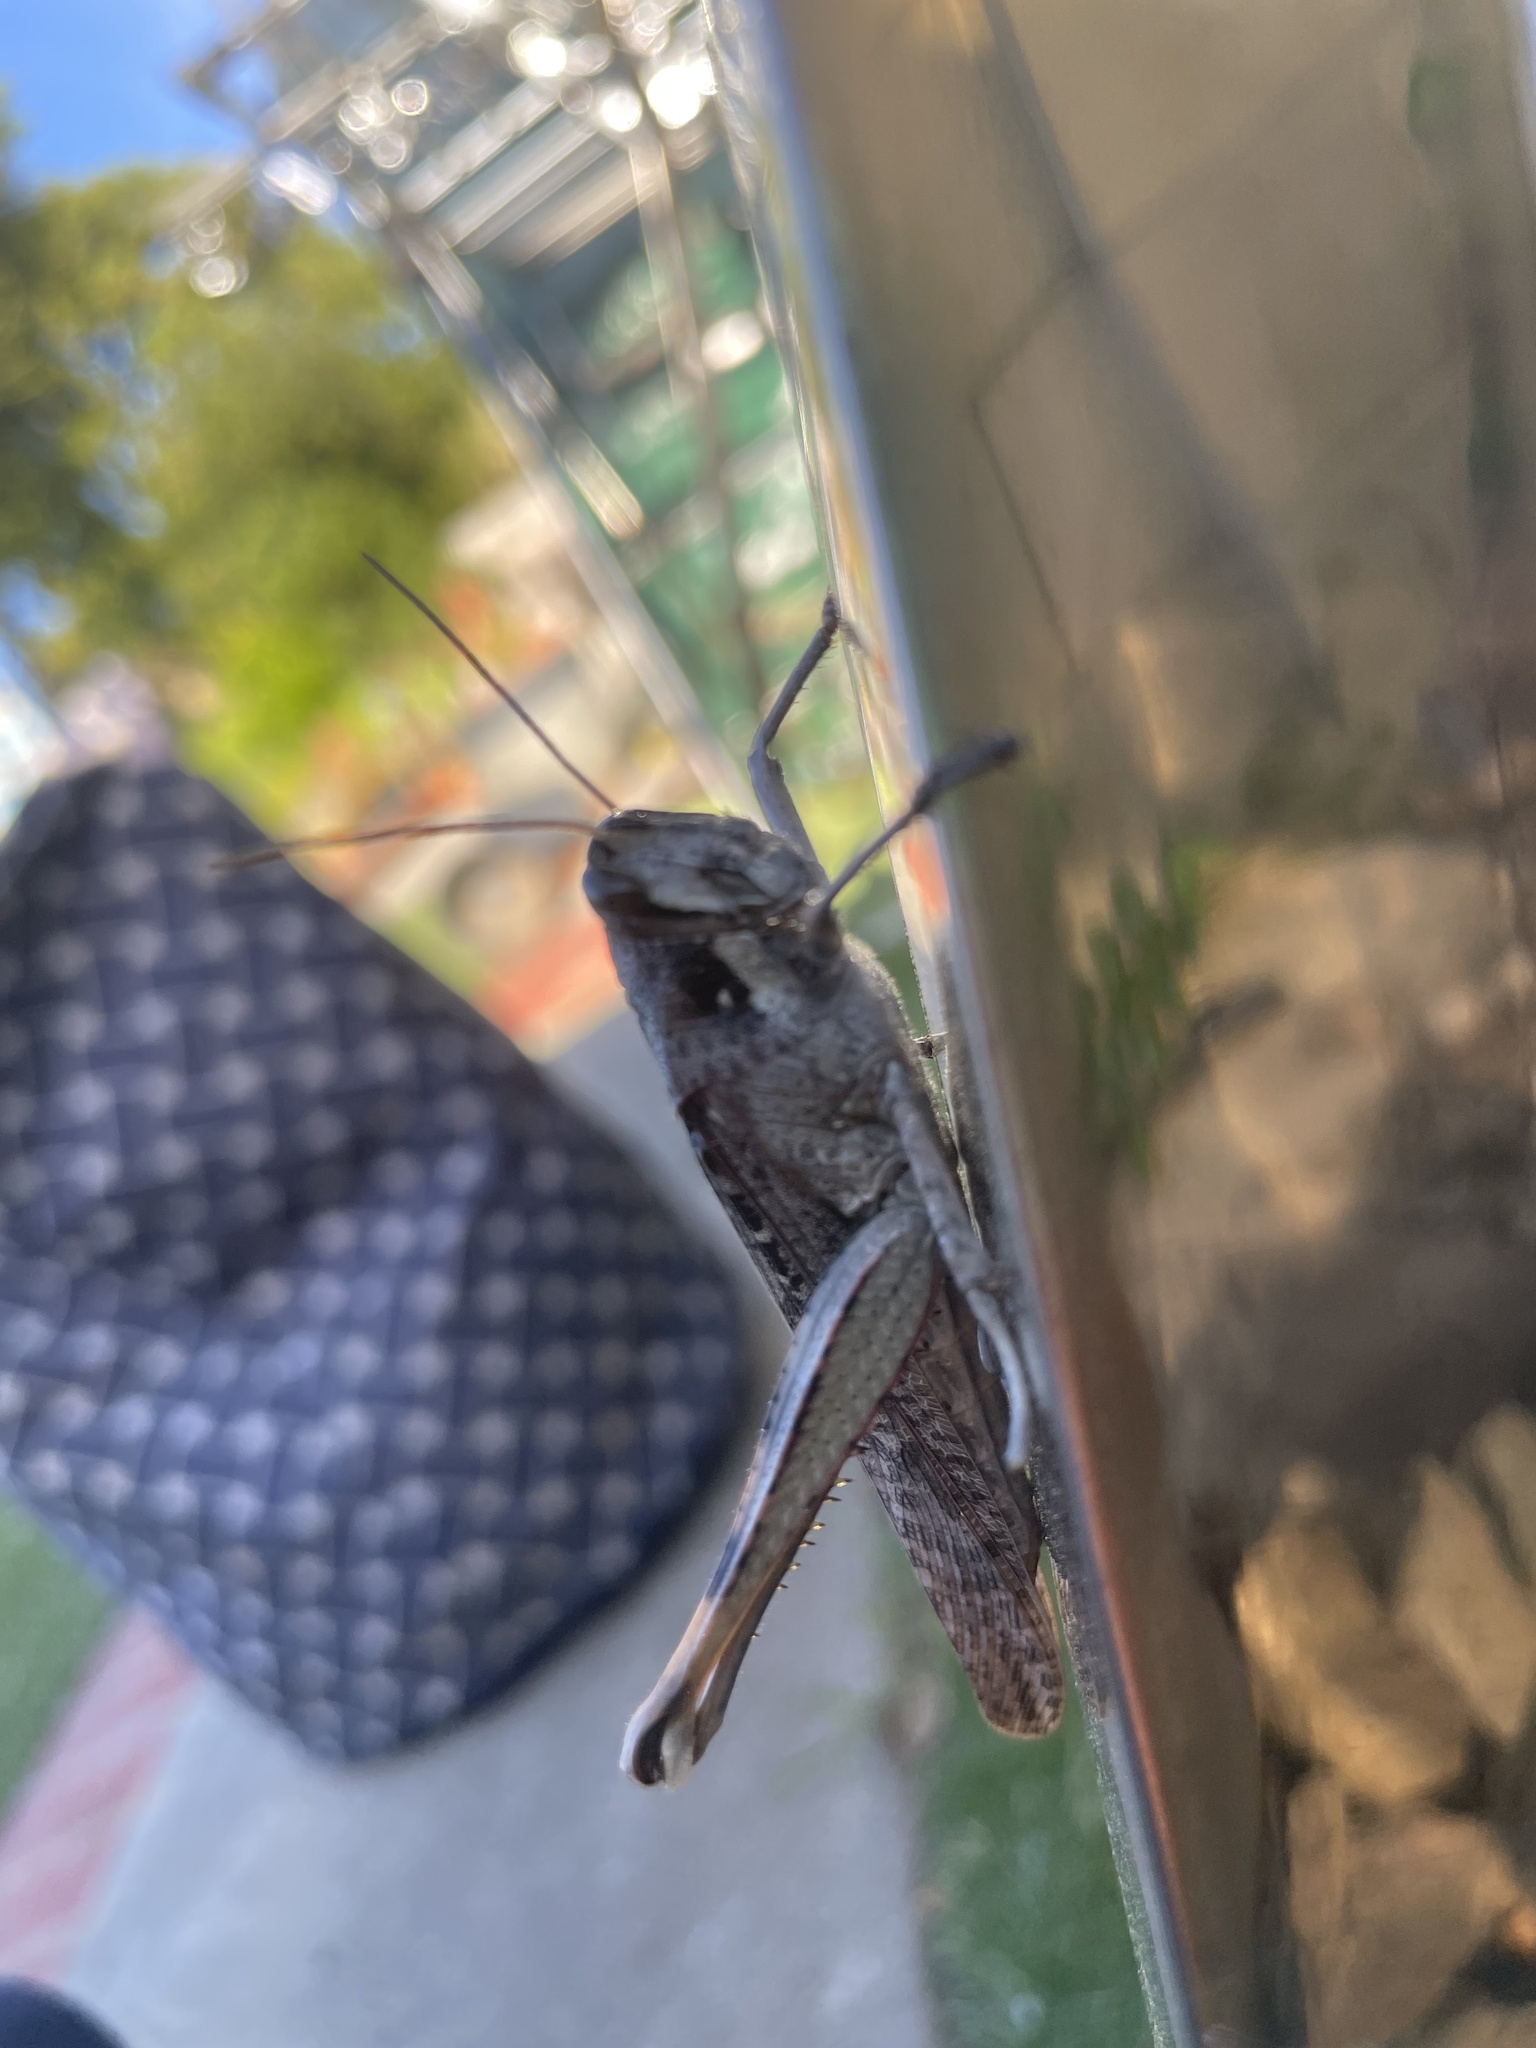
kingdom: Animalia
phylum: Arthropoda
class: Insecta
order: Orthoptera
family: Acrididae
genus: Schistocerca
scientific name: Schistocerca nitens
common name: Vagrant grasshopper
